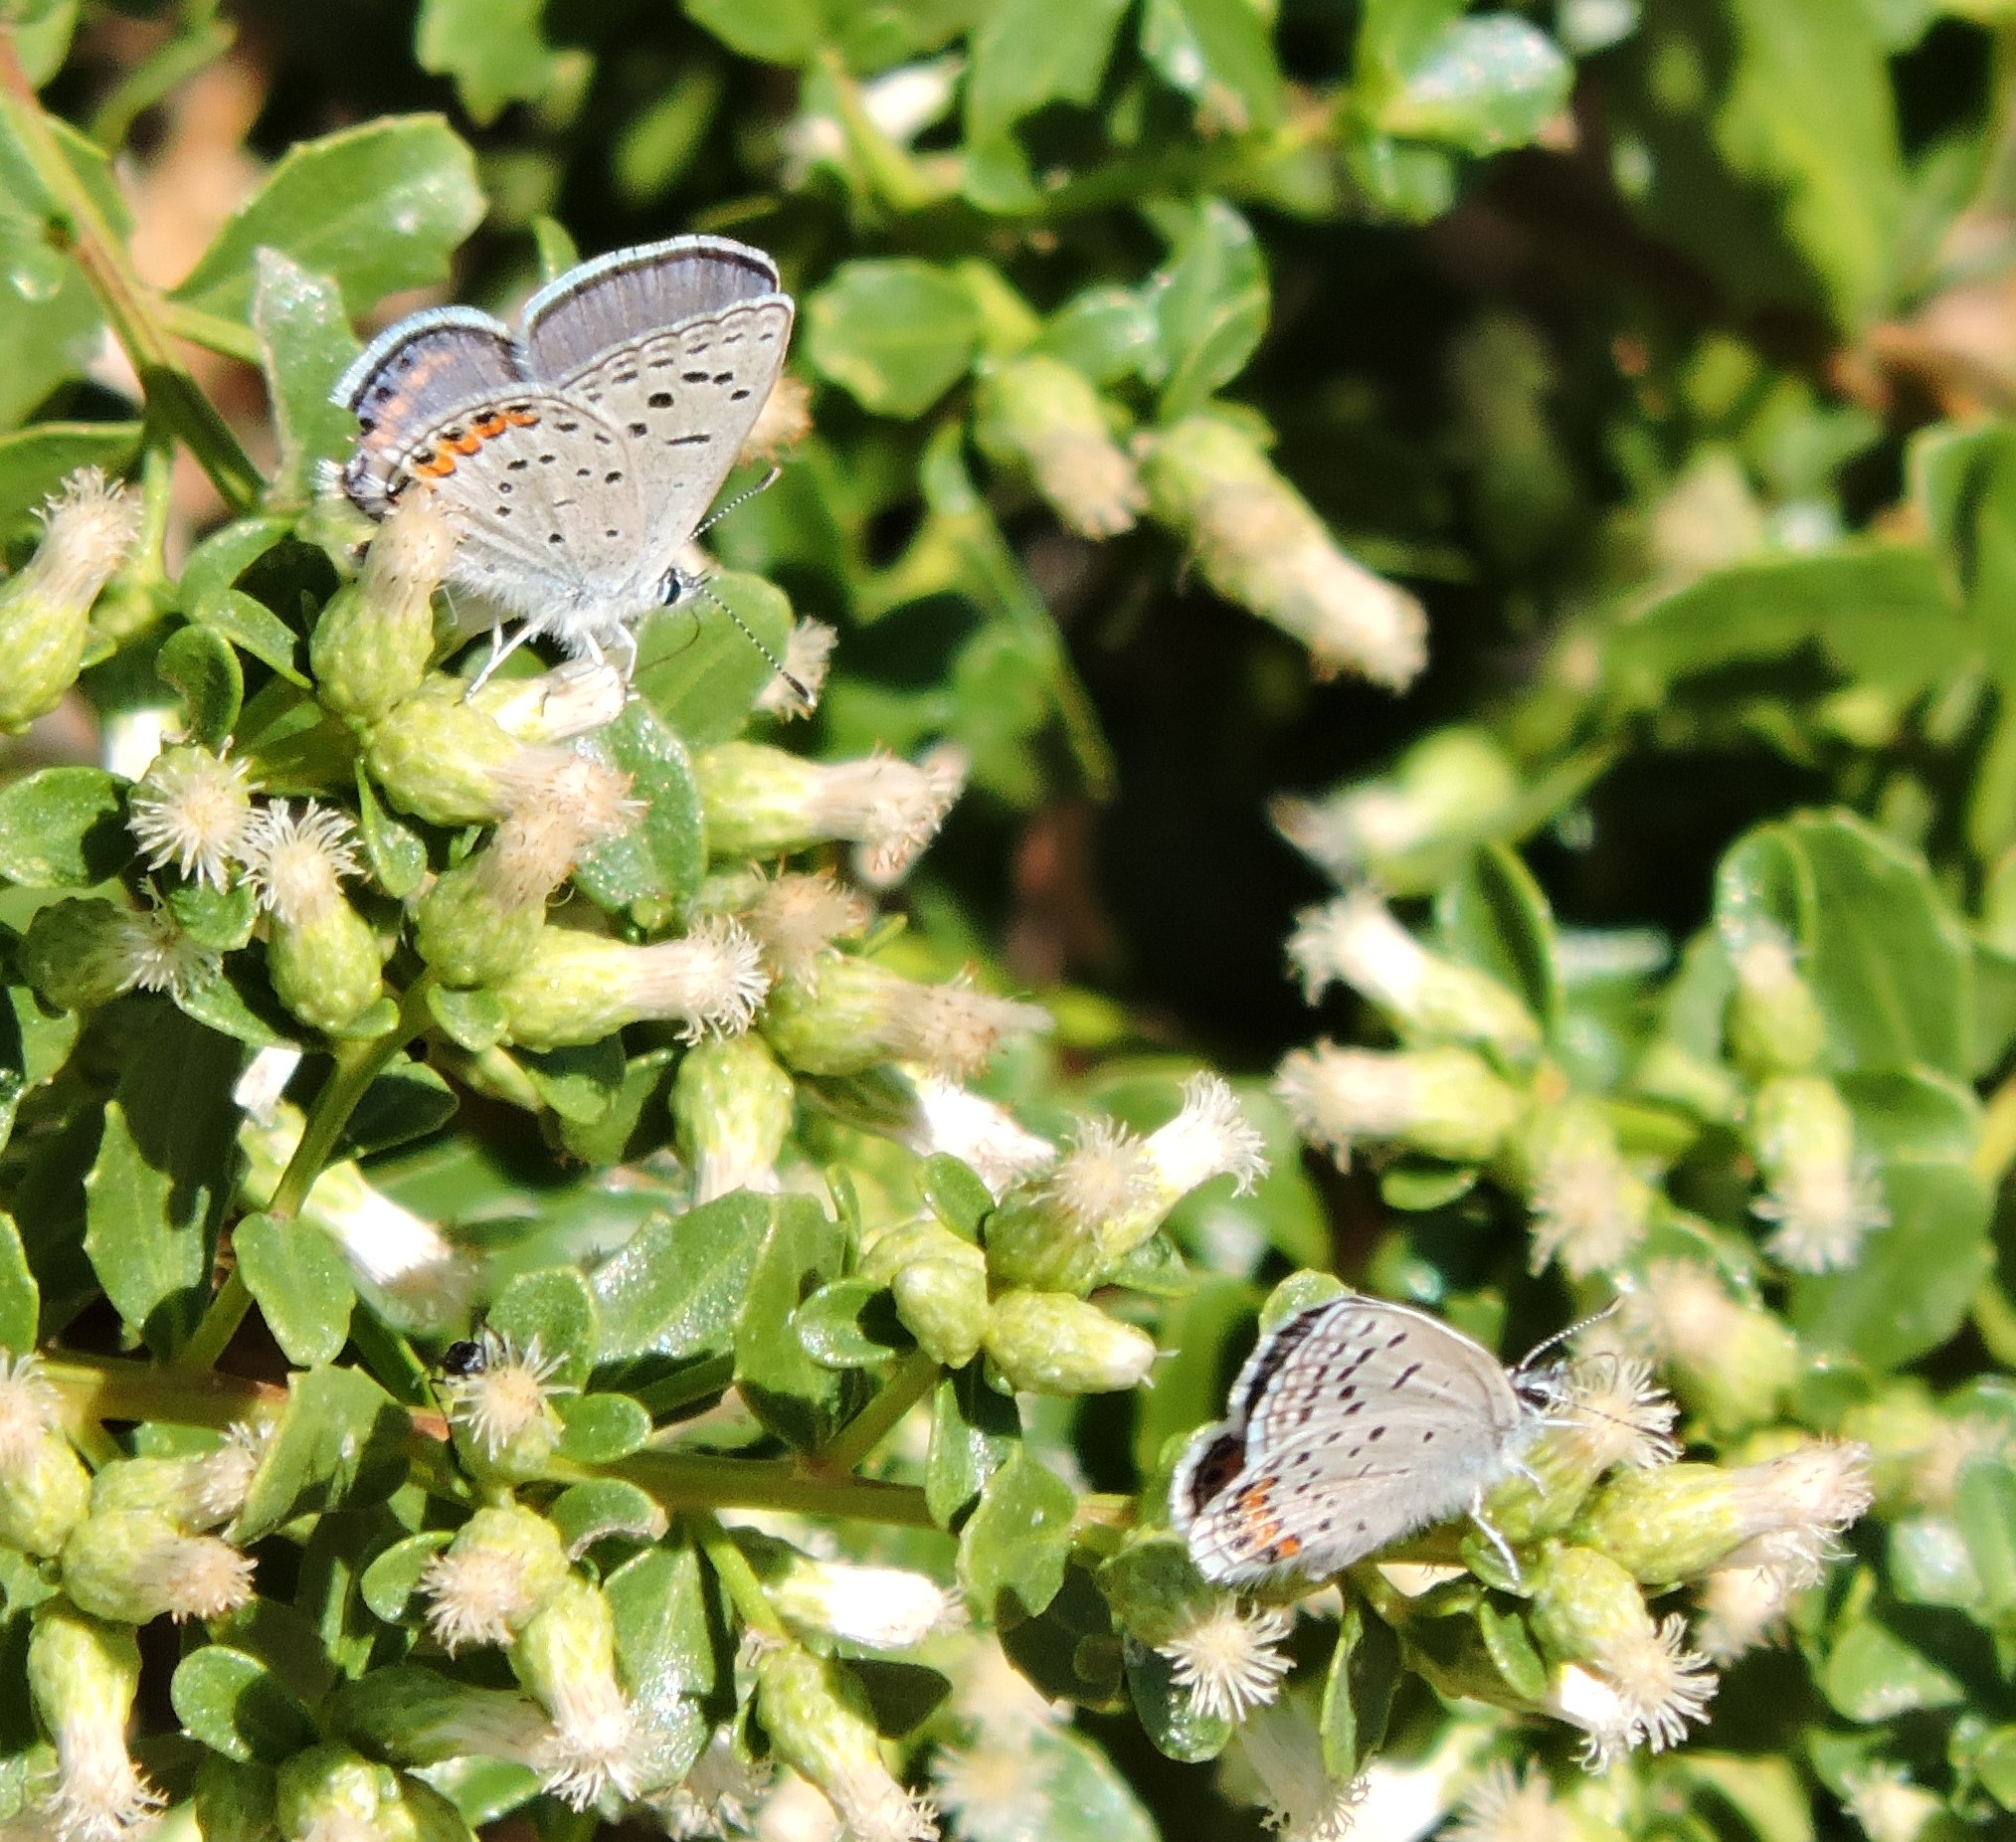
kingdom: Animalia
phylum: Arthropoda
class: Insecta
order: Lepidoptera
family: Lycaenidae
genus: Icaricia
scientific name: Icaricia acmon
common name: Acmon blue
